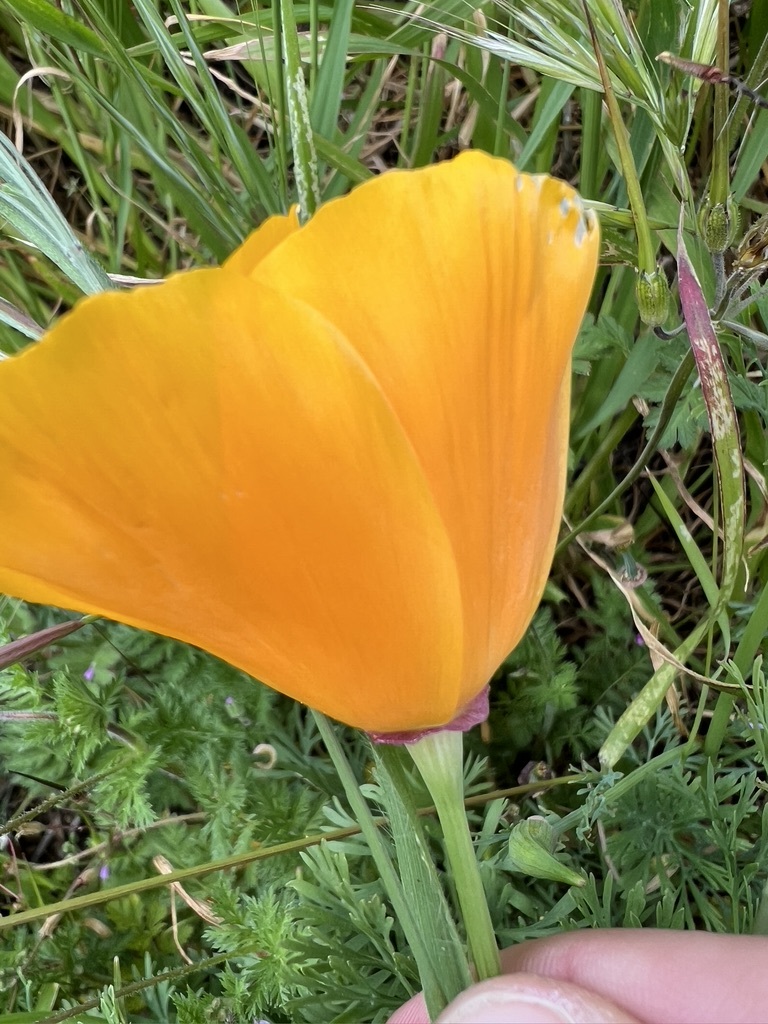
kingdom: Plantae
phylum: Tracheophyta
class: Magnoliopsida
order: Ranunculales
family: Papaveraceae
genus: Eschscholzia
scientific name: Eschscholzia californica
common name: California poppy
